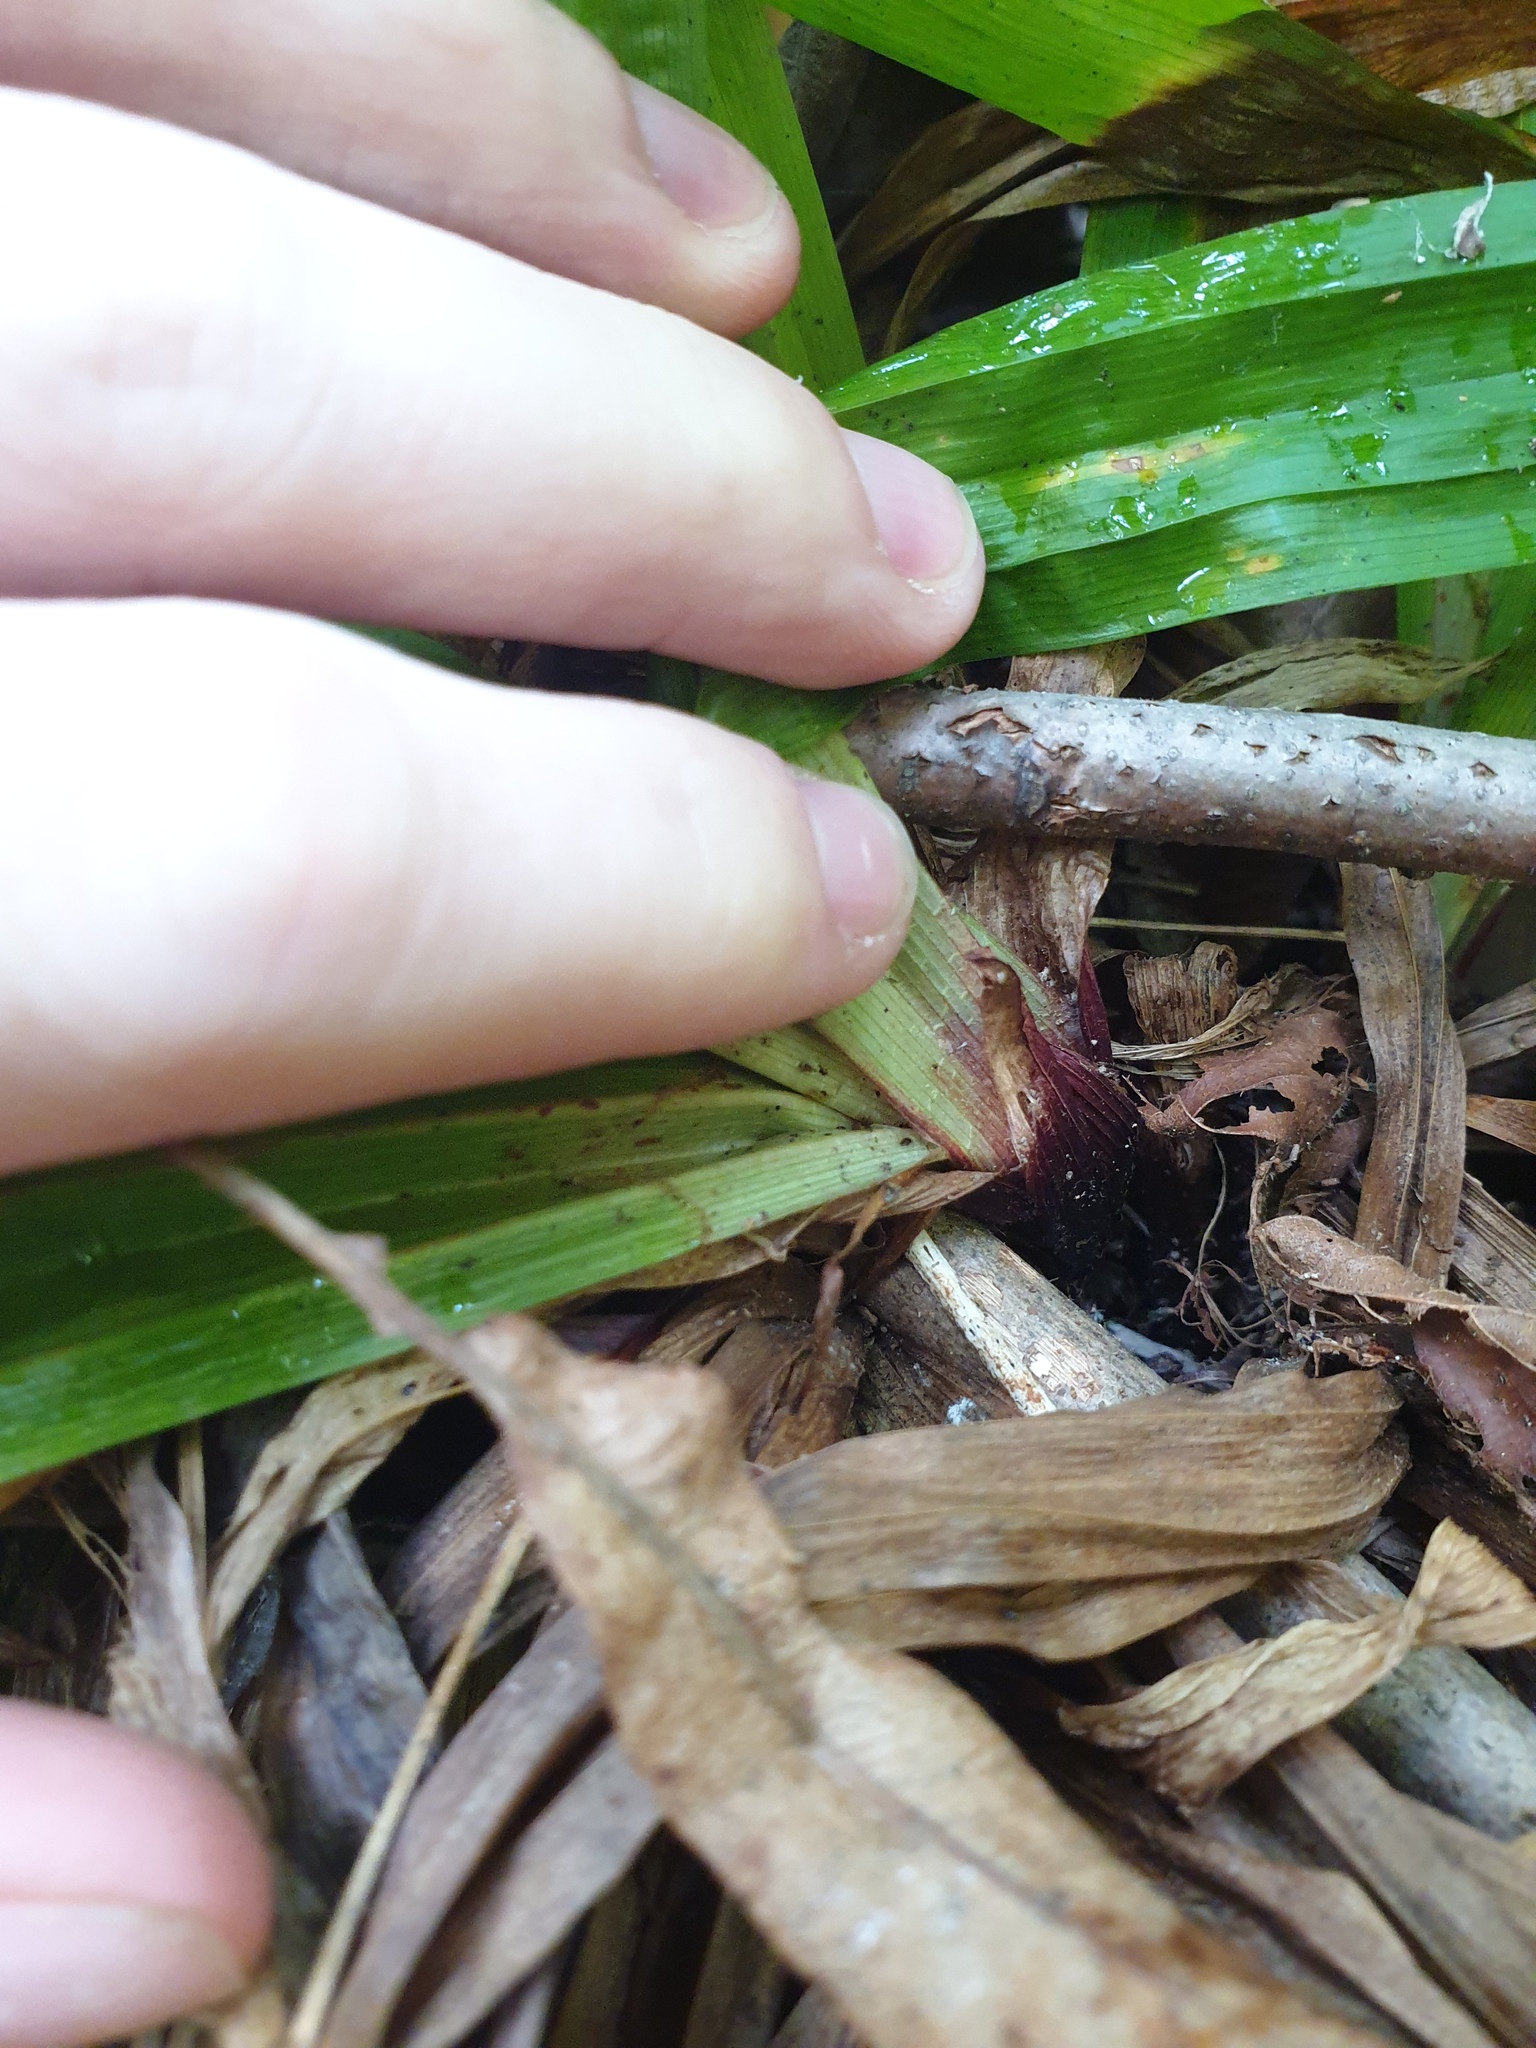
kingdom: Plantae
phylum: Tracheophyta
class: Liliopsida
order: Poales
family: Cyperaceae
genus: Carex
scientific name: Carex plantaginea
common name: Plantain-leaved sedge
